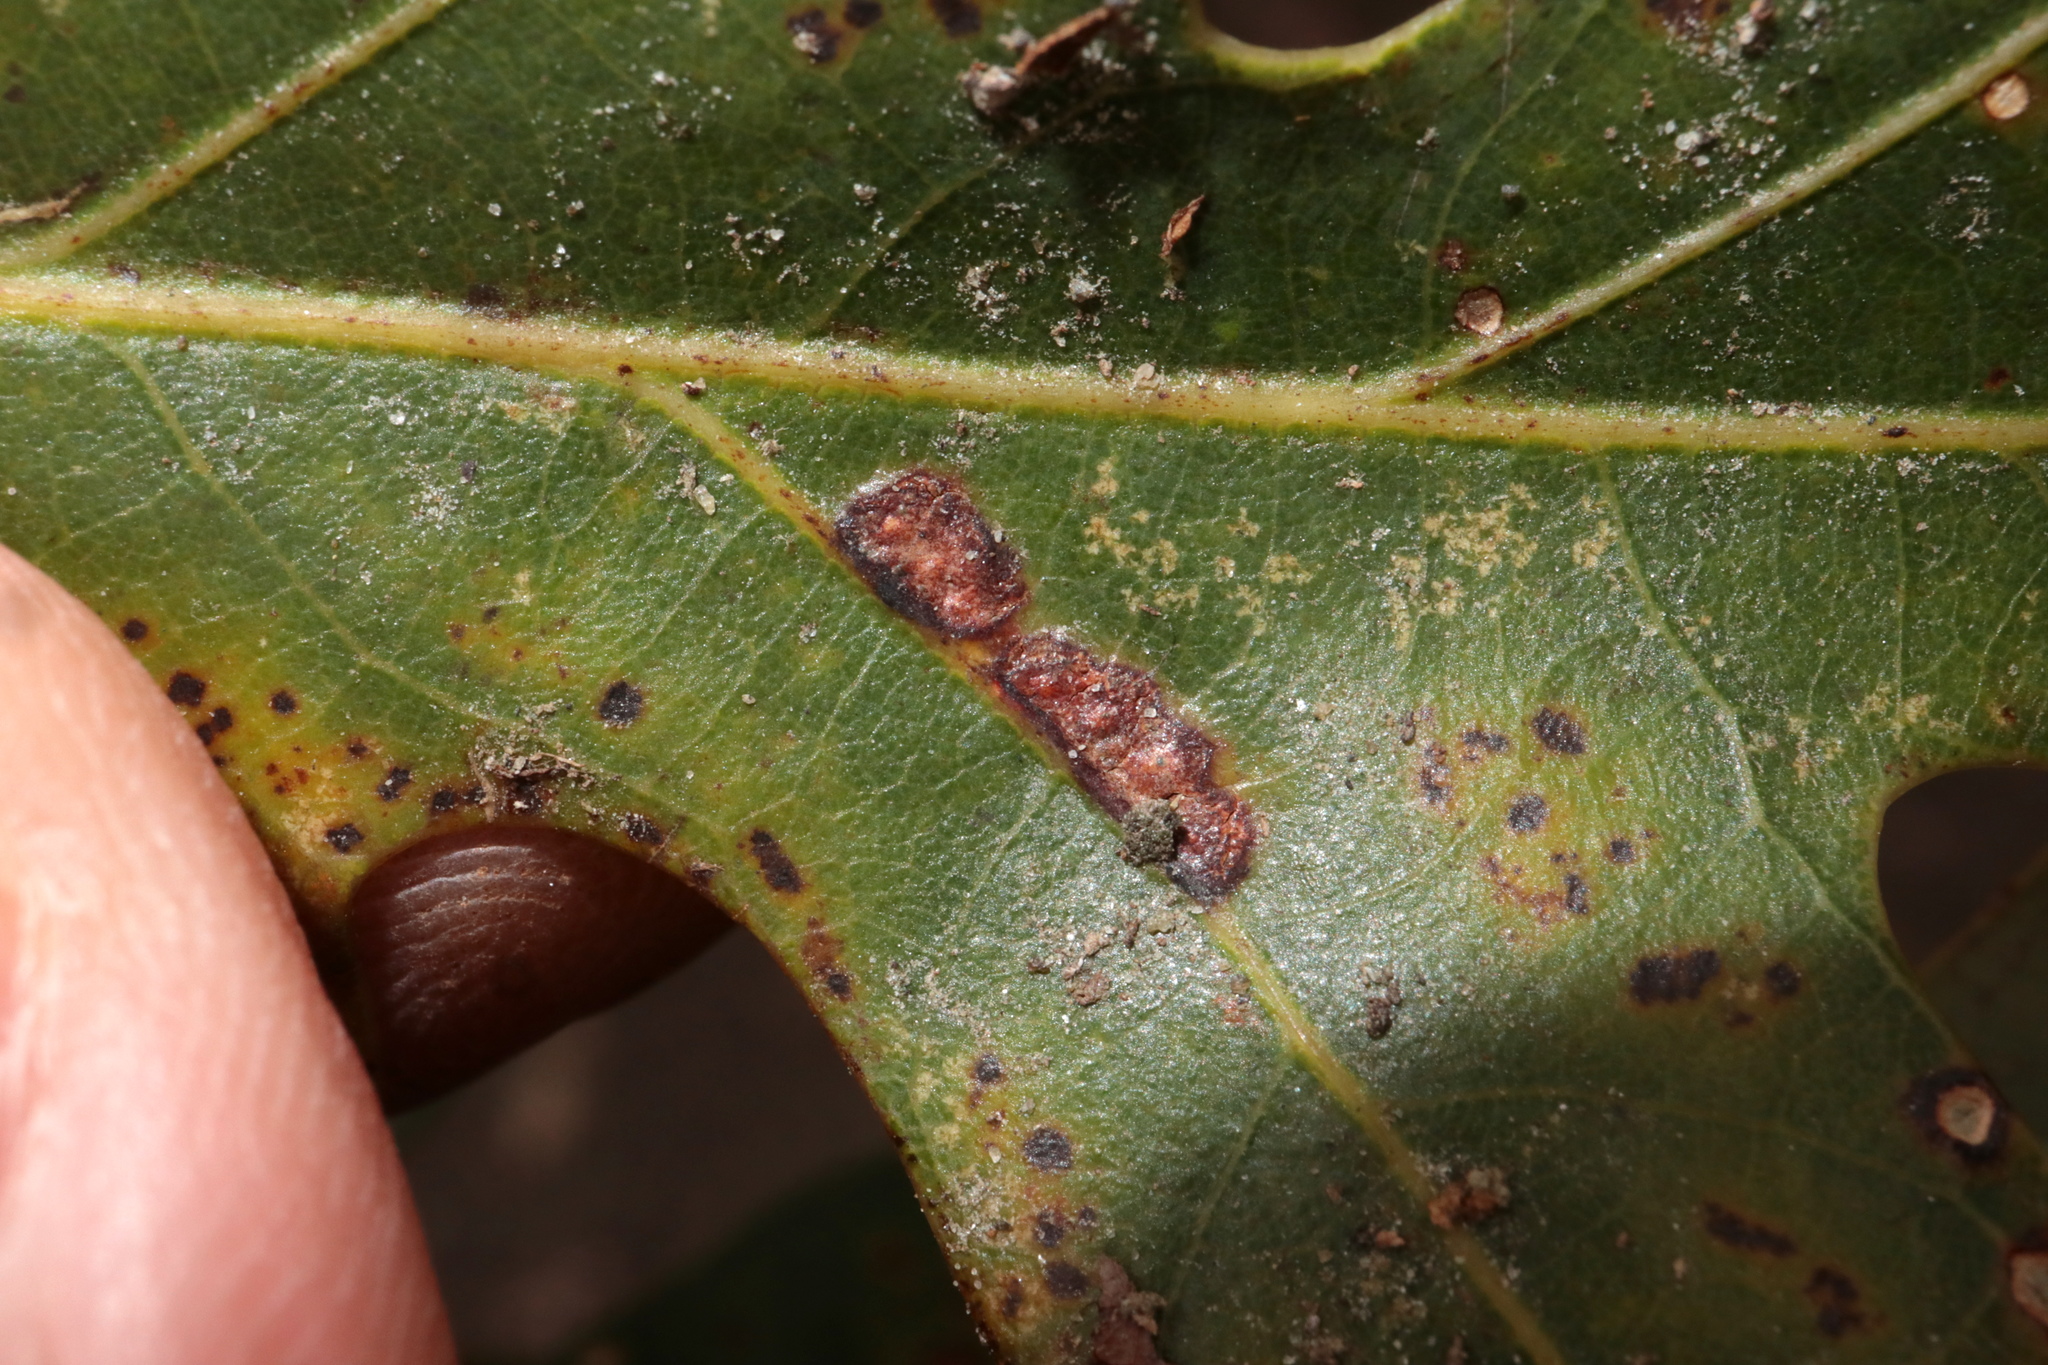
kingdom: Animalia
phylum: Arthropoda
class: Insecta
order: Hymenoptera
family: Cynipidae
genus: Neuroterus
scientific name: Neuroterus niger
